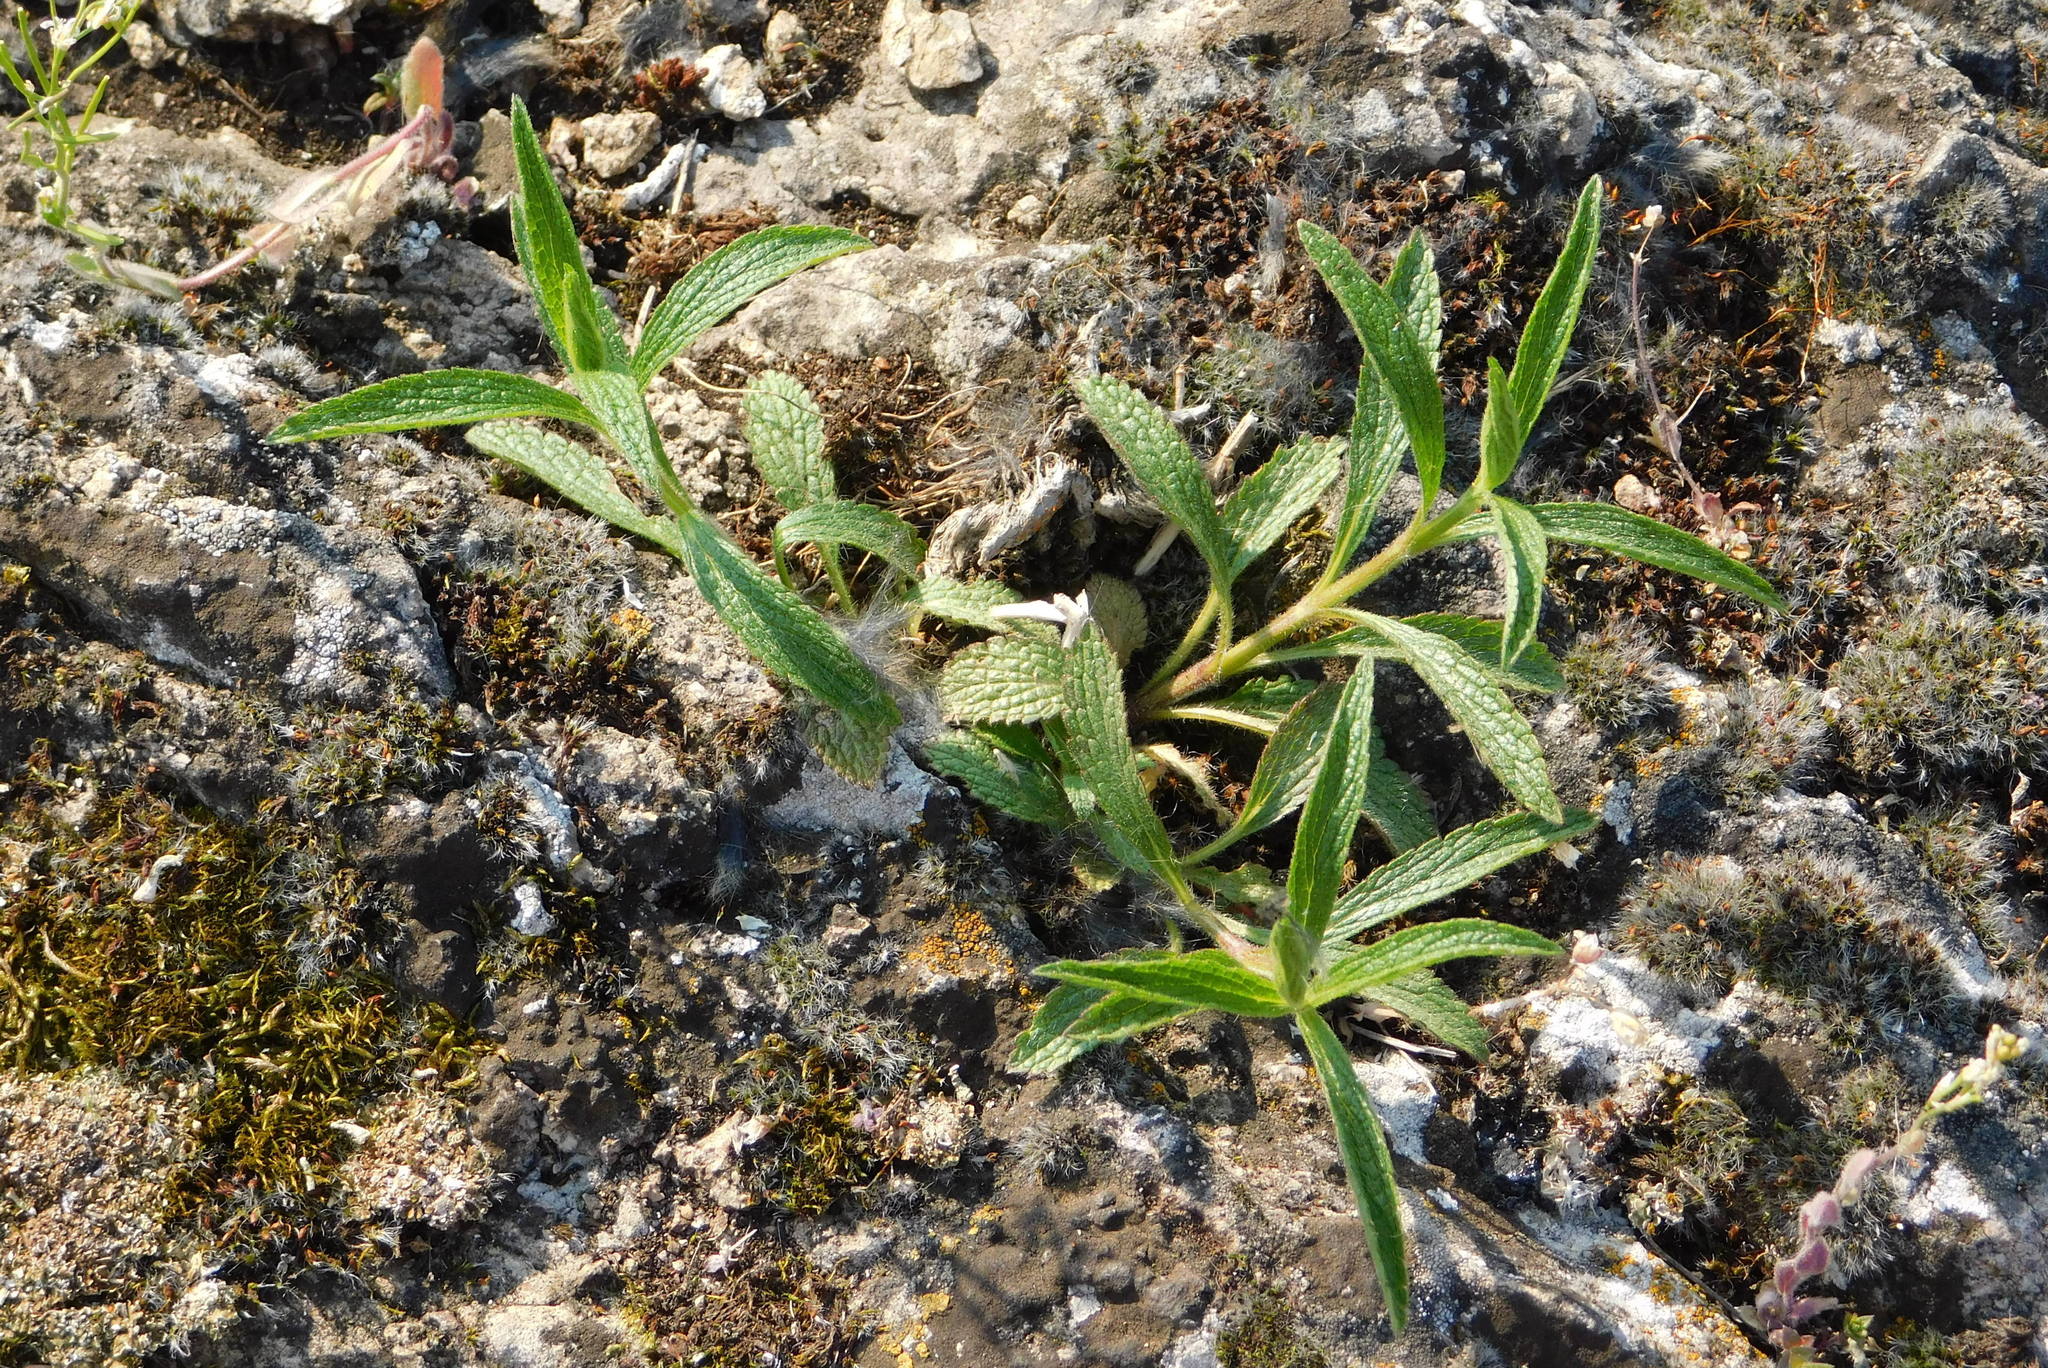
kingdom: Plantae
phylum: Tracheophyta
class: Magnoliopsida
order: Lamiales
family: Lamiaceae
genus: Stachys
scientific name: Stachys recta
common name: Perennial yellow-woundwort
